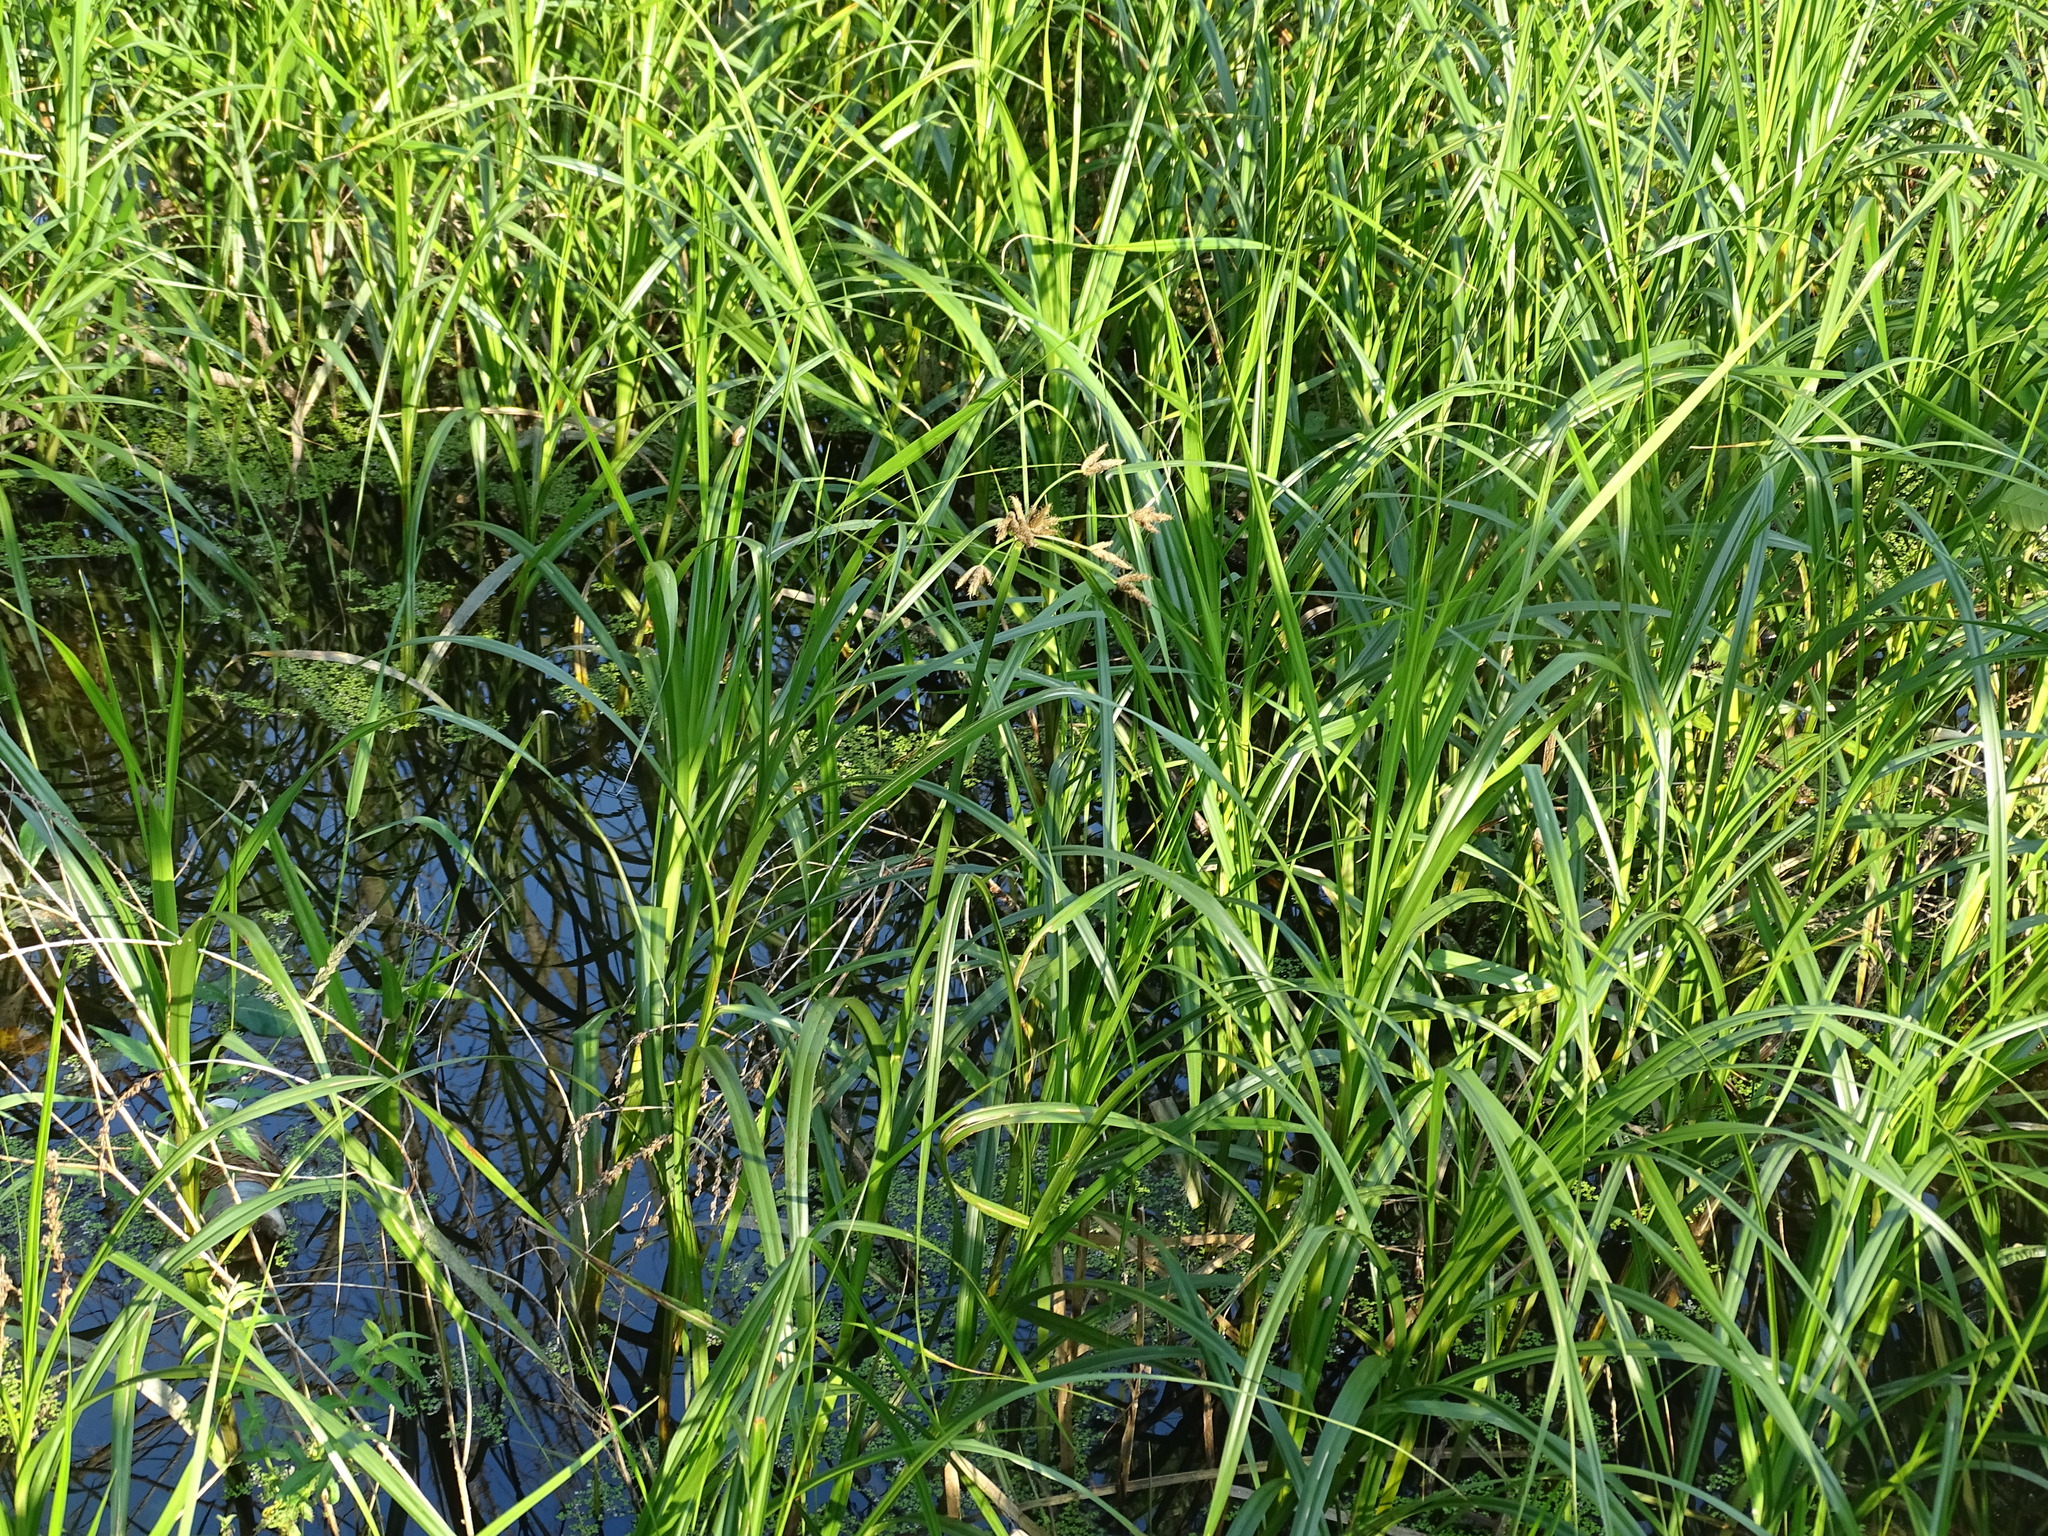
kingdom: Plantae
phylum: Tracheophyta
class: Liliopsida
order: Poales
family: Cyperaceae
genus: Bolboschoenus
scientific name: Bolboschoenus fluviatilis
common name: River bulrush
